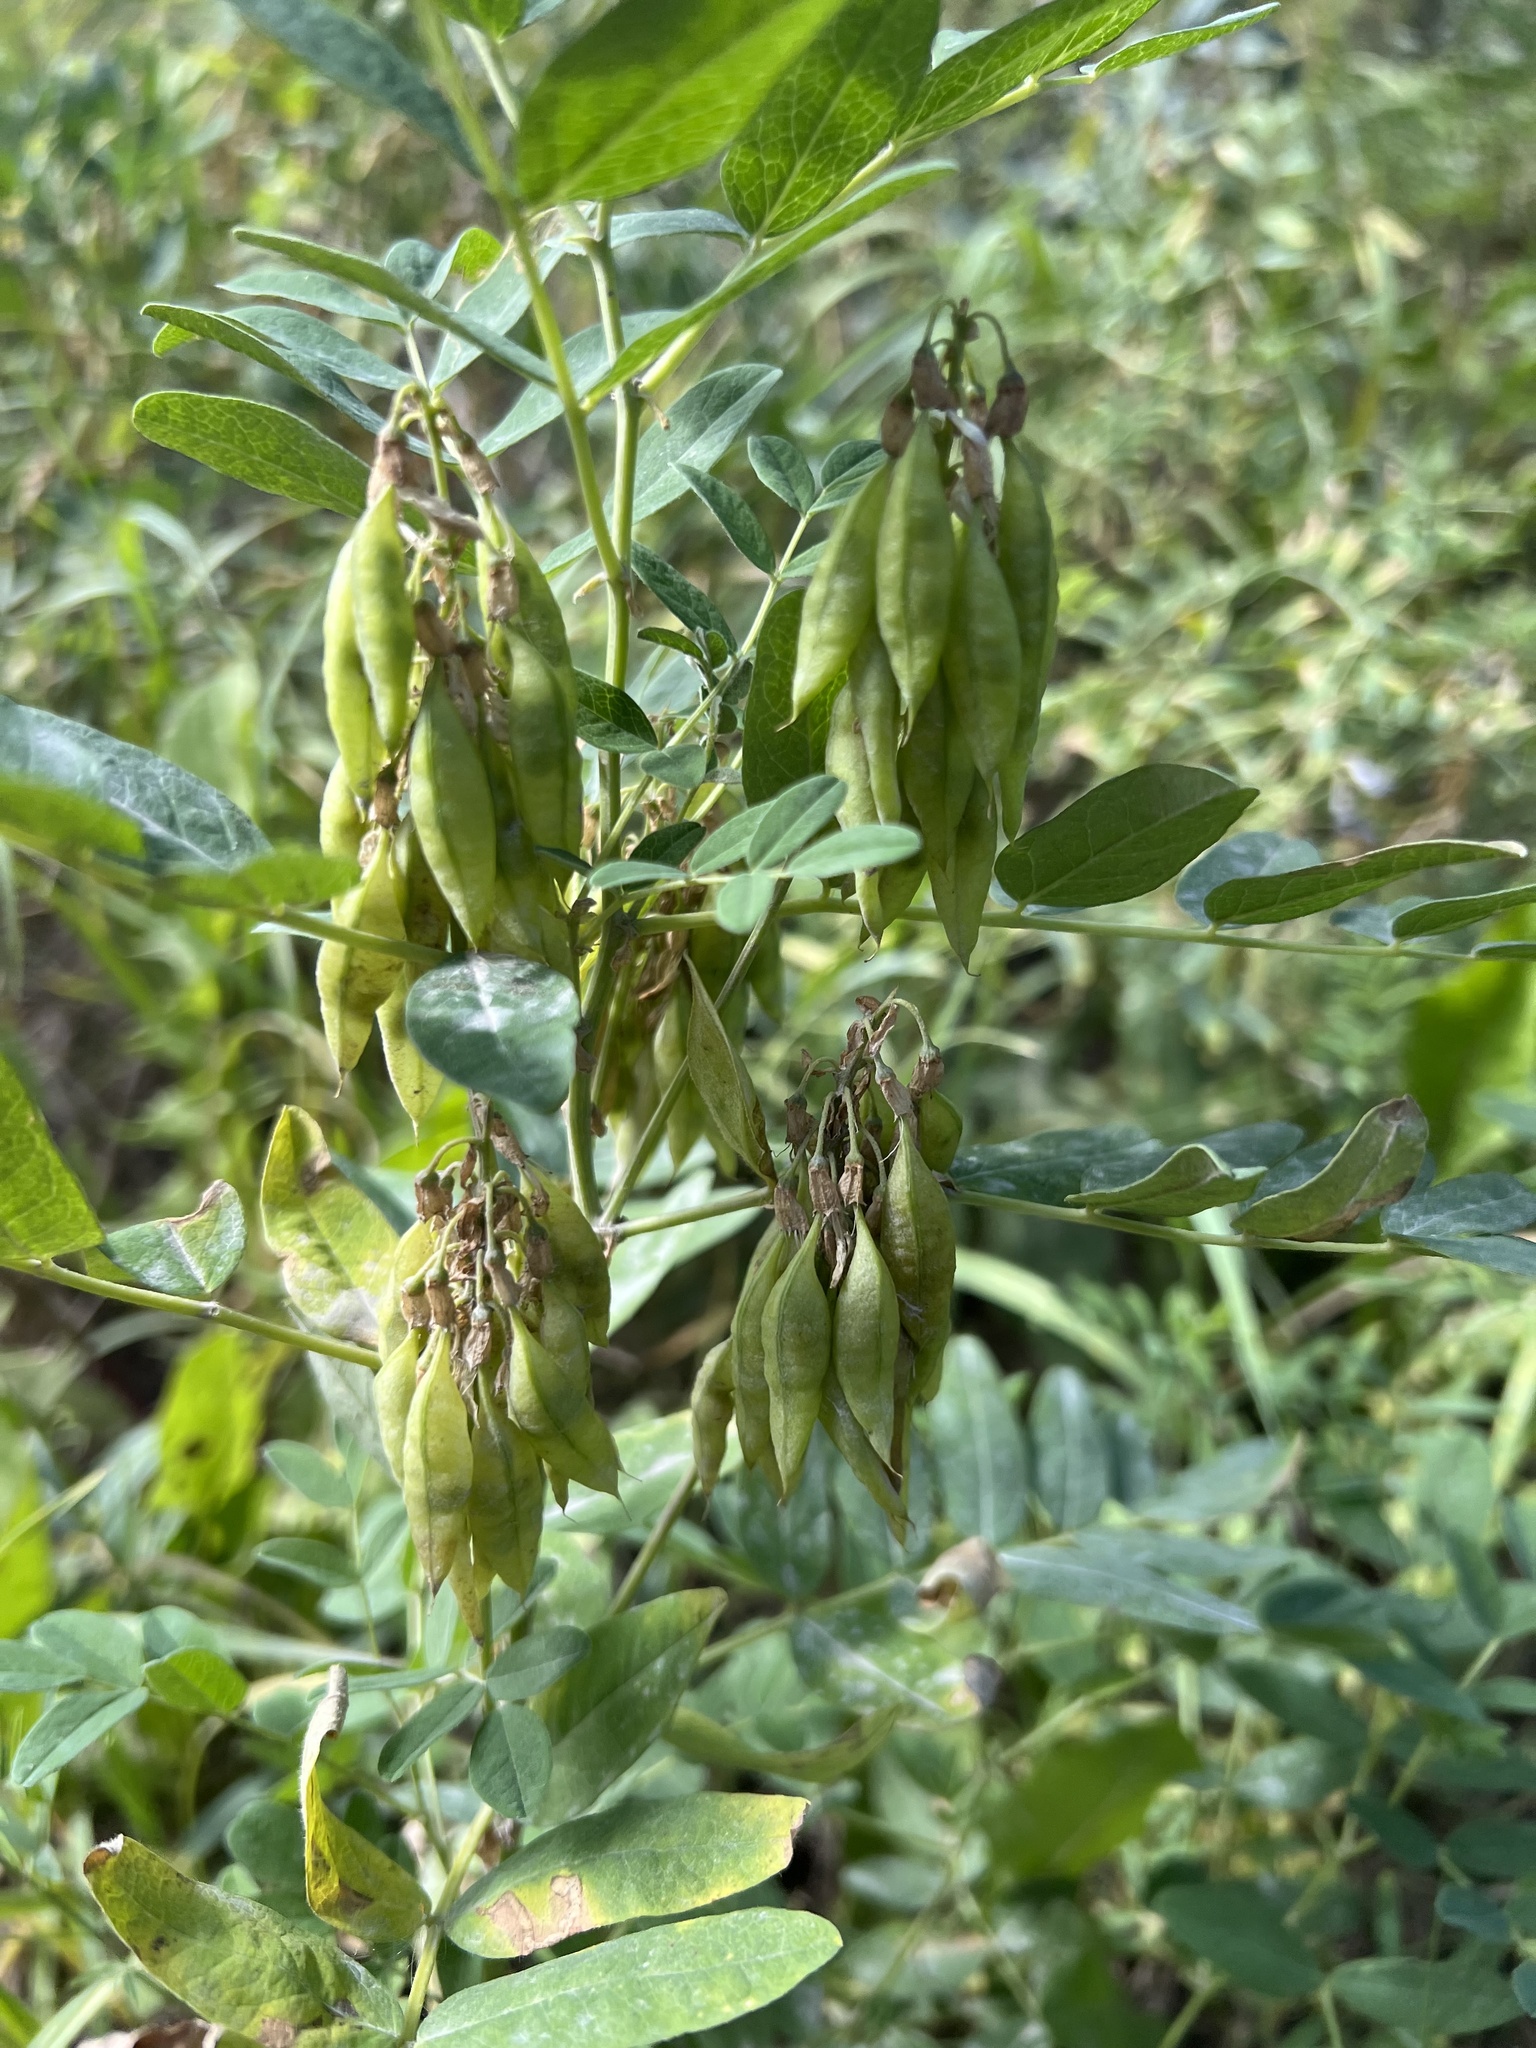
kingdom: Plantae
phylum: Tracheophyta
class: Magnoliopsida
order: Fabales
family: Fabaceae
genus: Astragalus
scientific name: Astragalus americanus
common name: American milk-vetch
